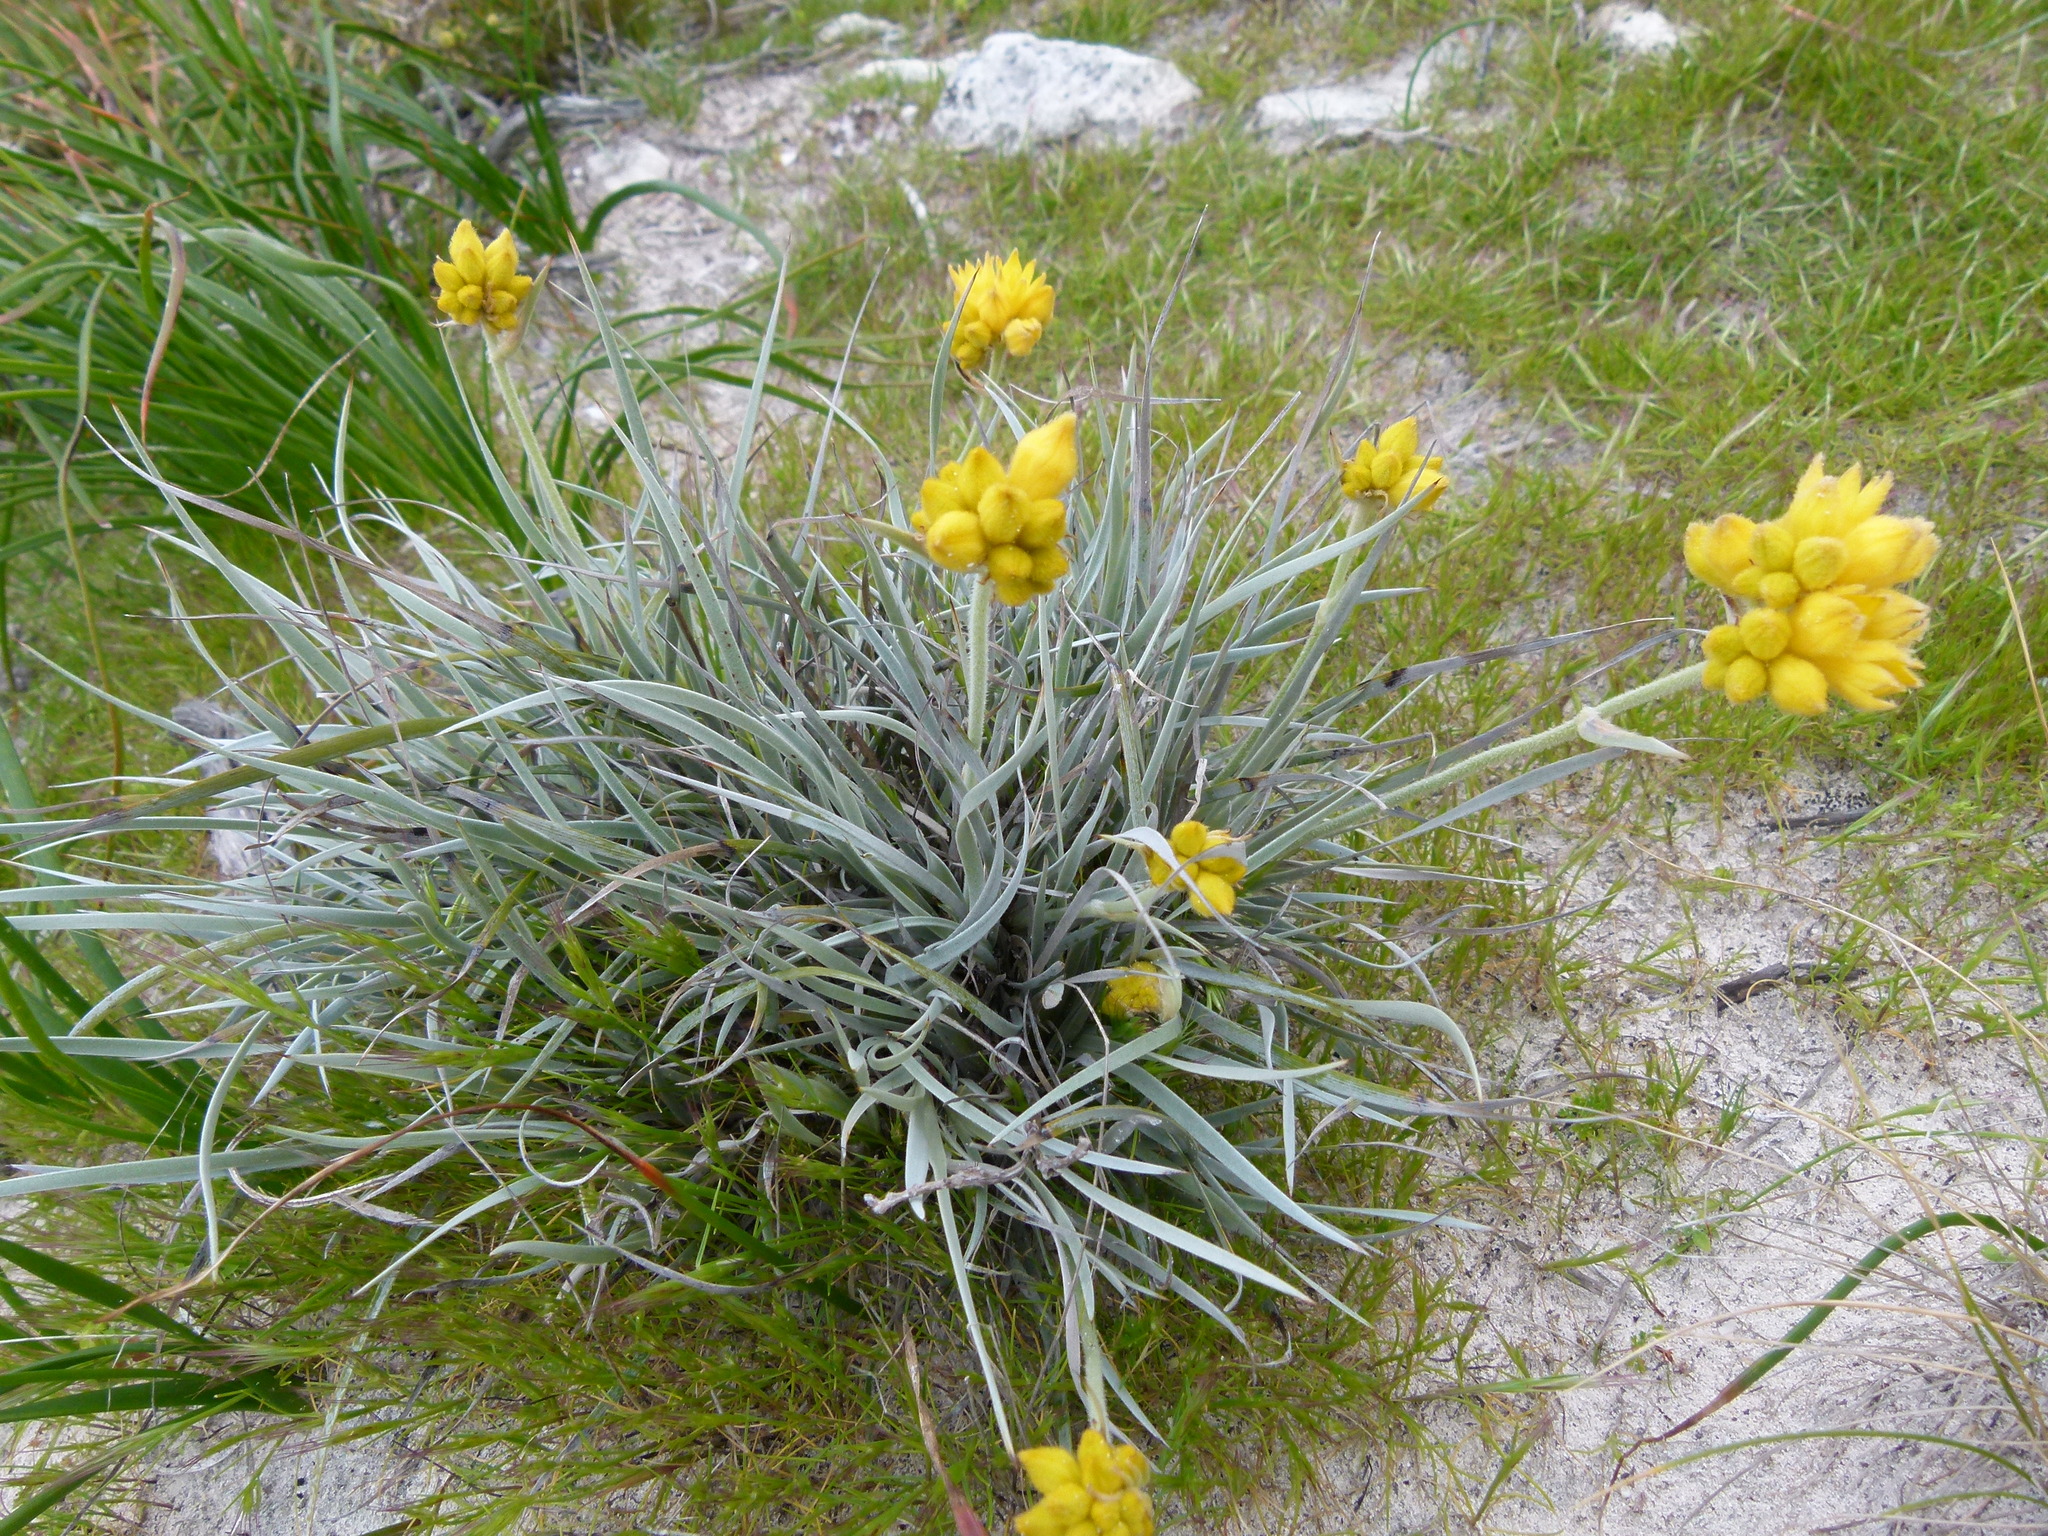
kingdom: Plantae
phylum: Tracheophyta
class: Liliopsida
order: Commelinales
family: Haemodoraceae
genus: Conostylis
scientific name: Conostylis candicans
